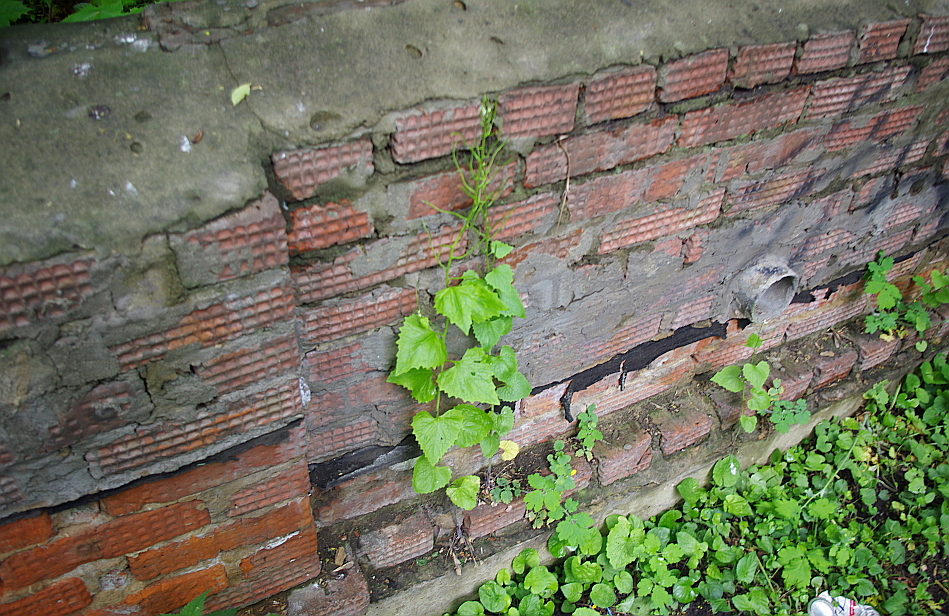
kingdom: Plantae
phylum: Tracheophyta
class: Magnoliopsida
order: Brassicales
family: Brassicaceae
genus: Alliaria
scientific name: Alliaria petiolata
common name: Garlic mustard
